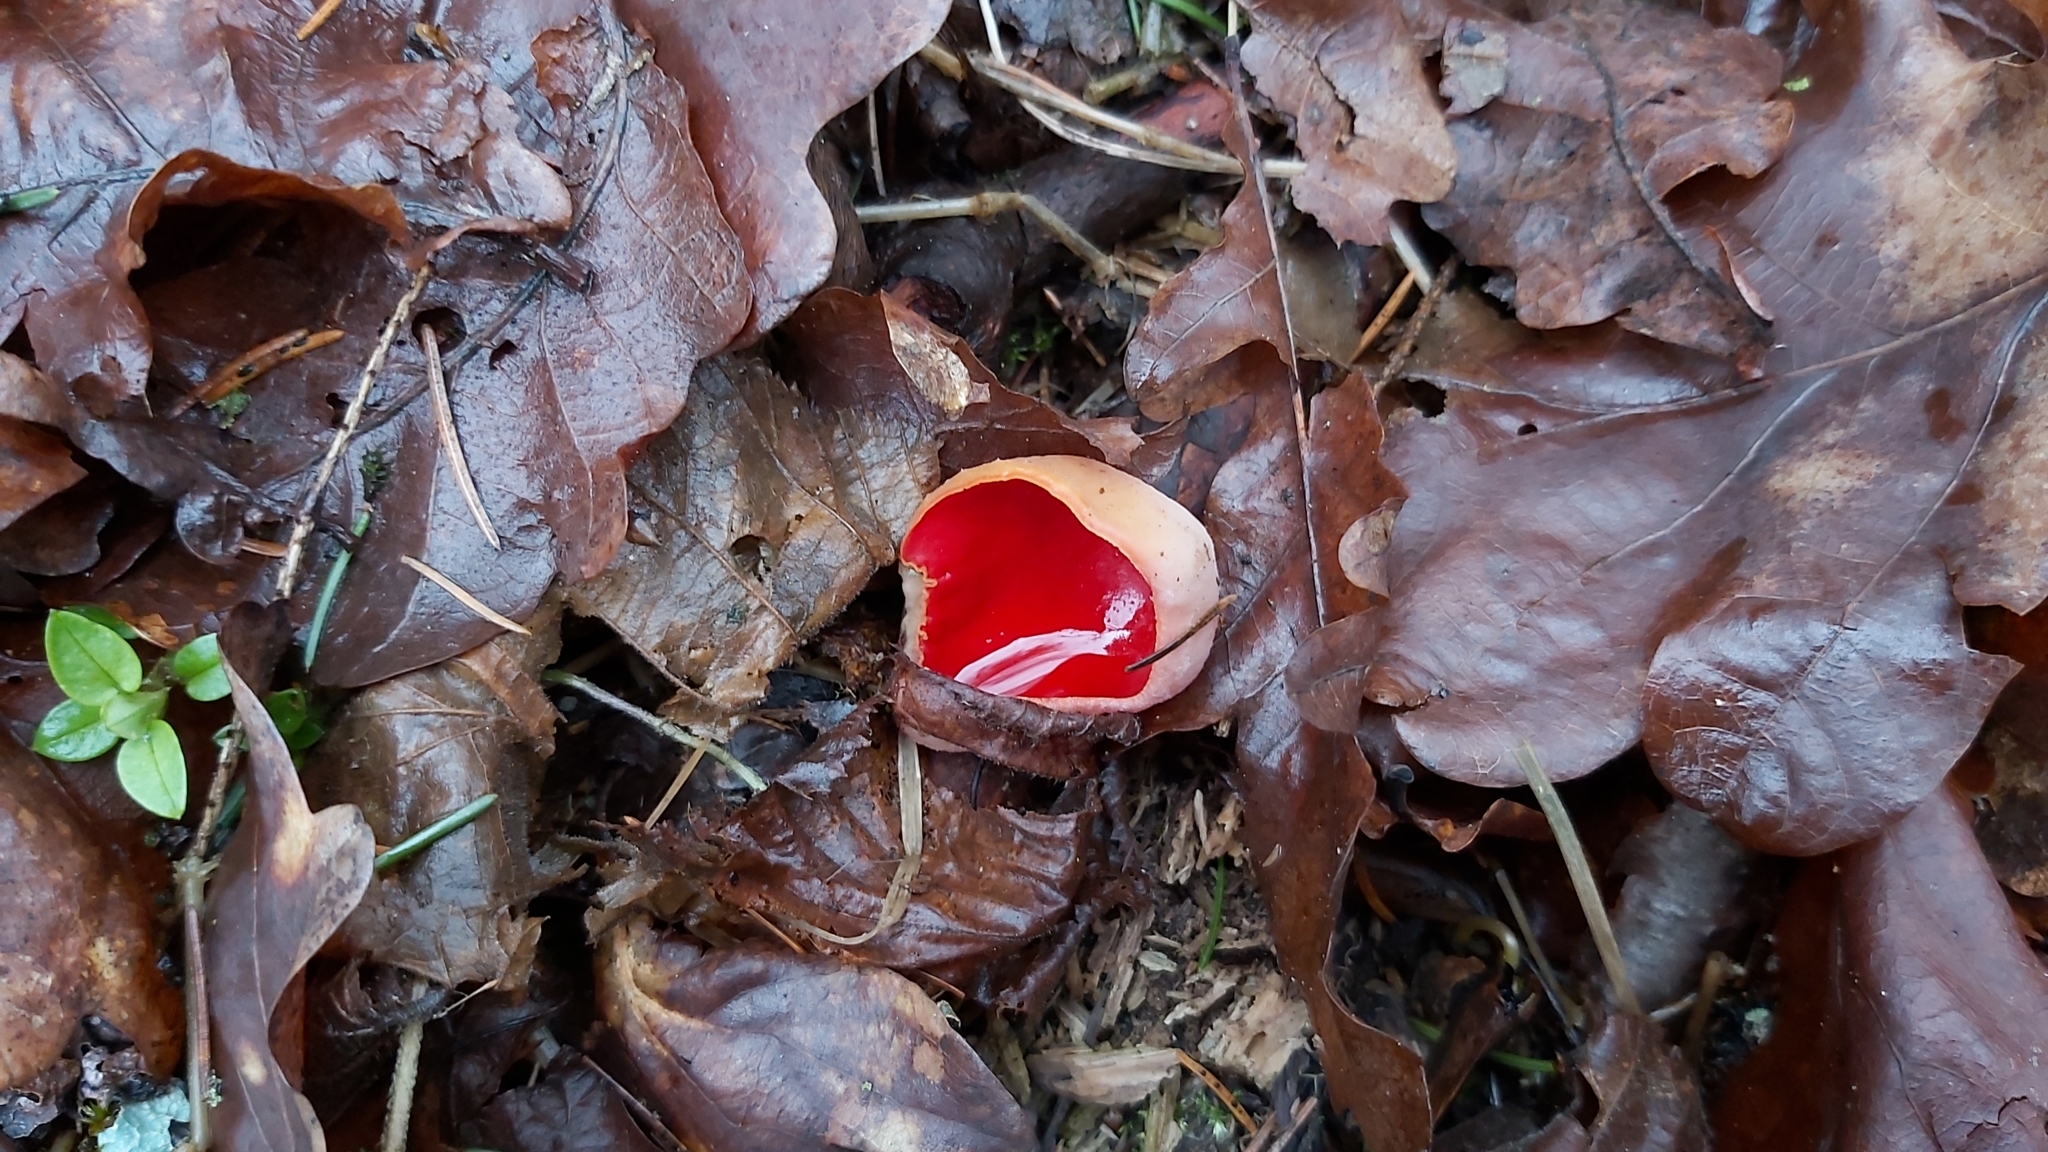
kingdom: Fungi
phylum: Ascomycota
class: Pezizomycetes
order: Pezizales
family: Sarcoscyphaceae
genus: Sarcoscypha
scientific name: Sarcoscypha
